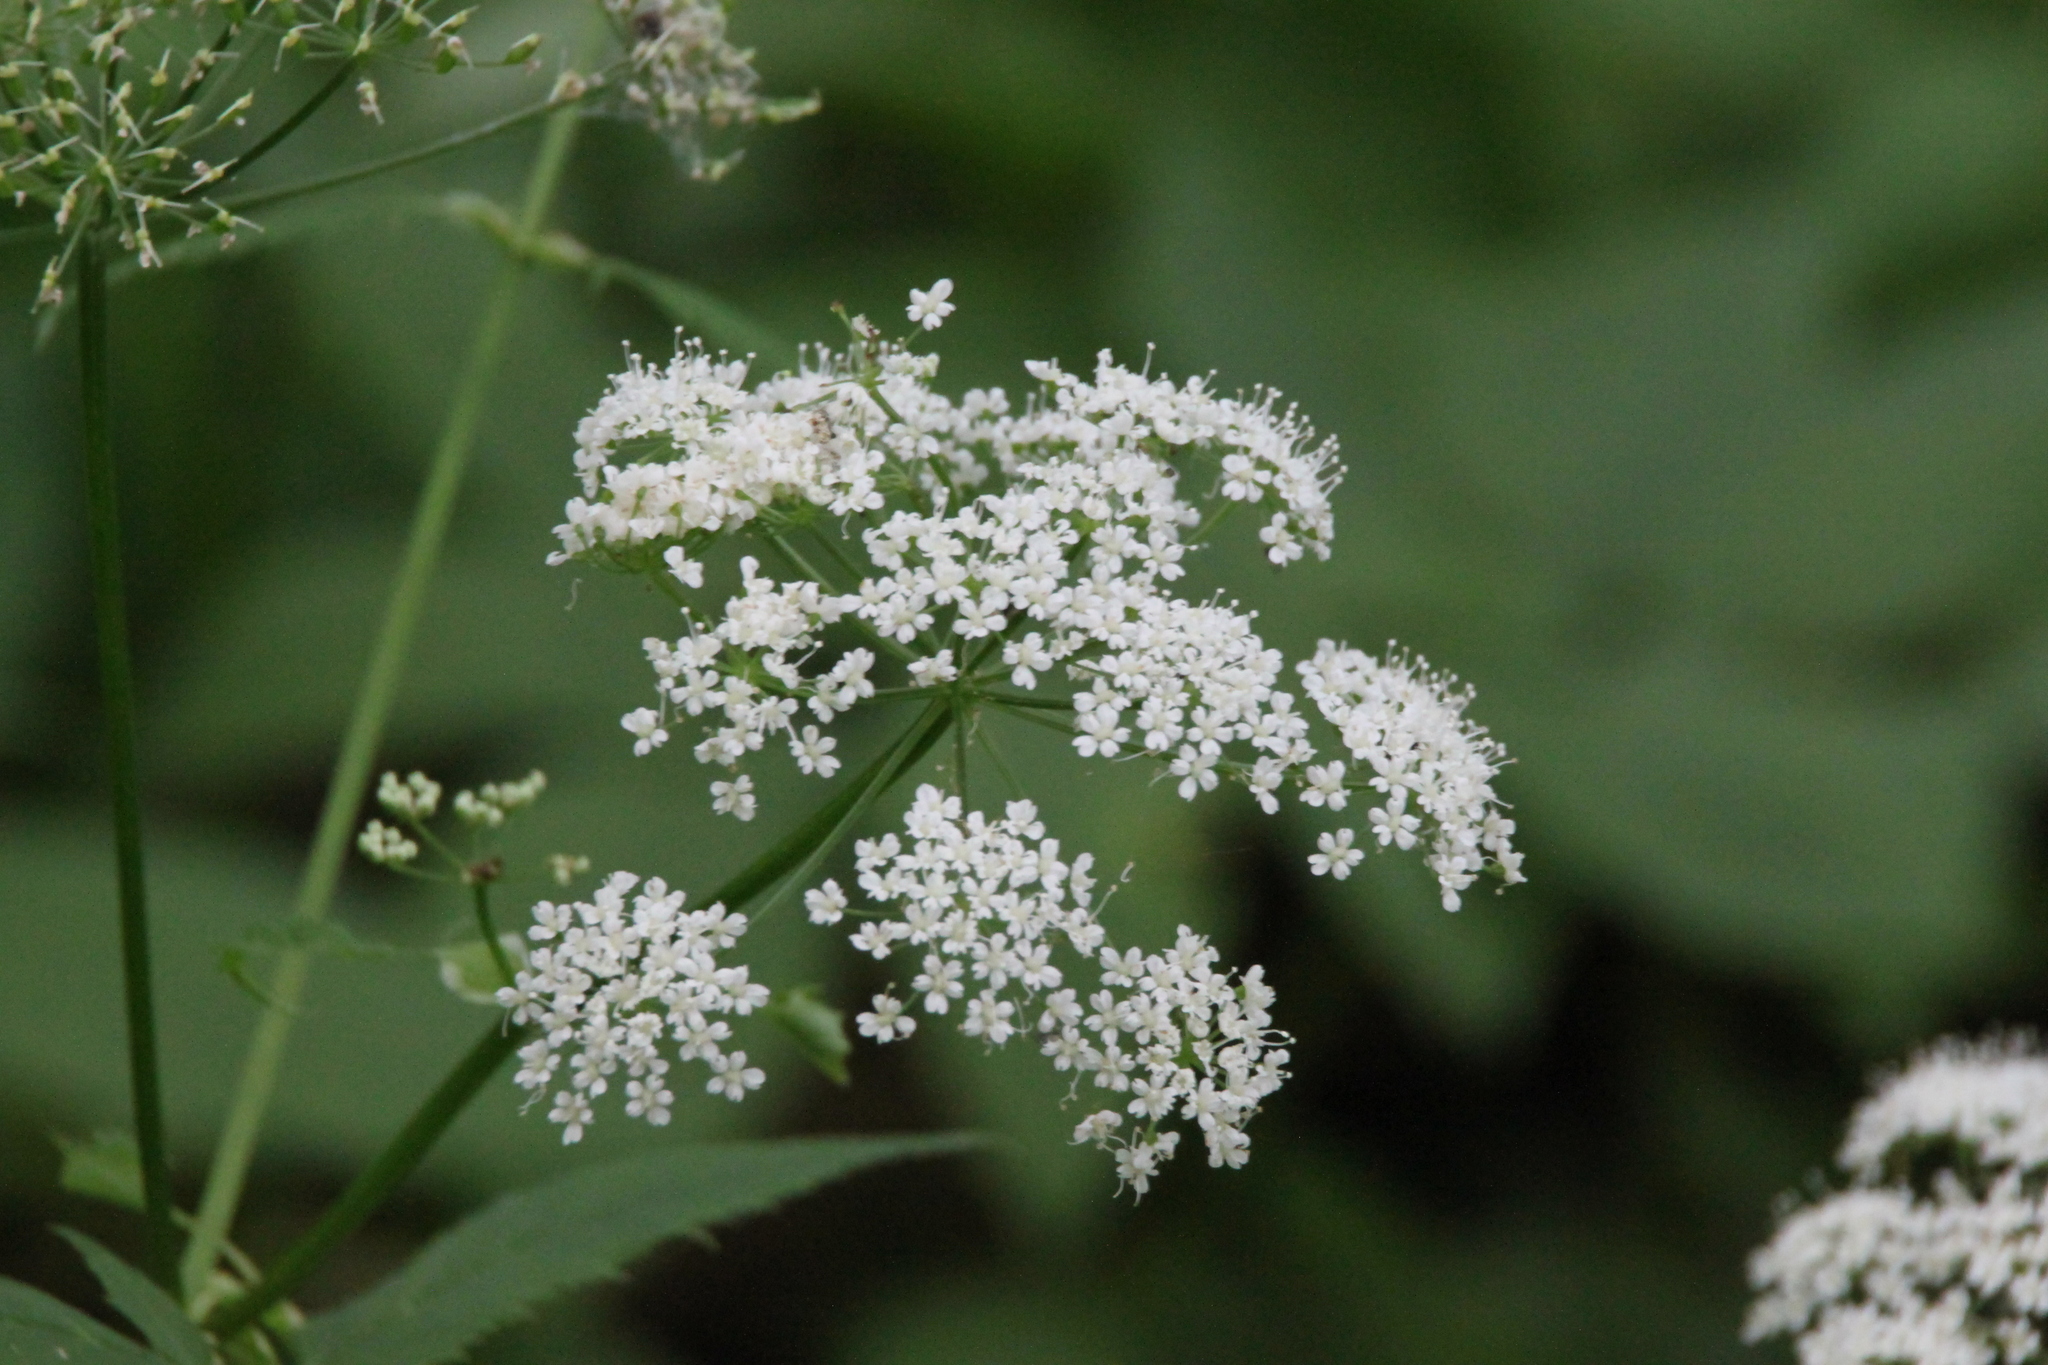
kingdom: Plantae
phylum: Tracheophyta
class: Magnoliopsida
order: Apiales
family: Apiaceae
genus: Aegopodium
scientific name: Aegopodium podagraria
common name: Ground-elder
